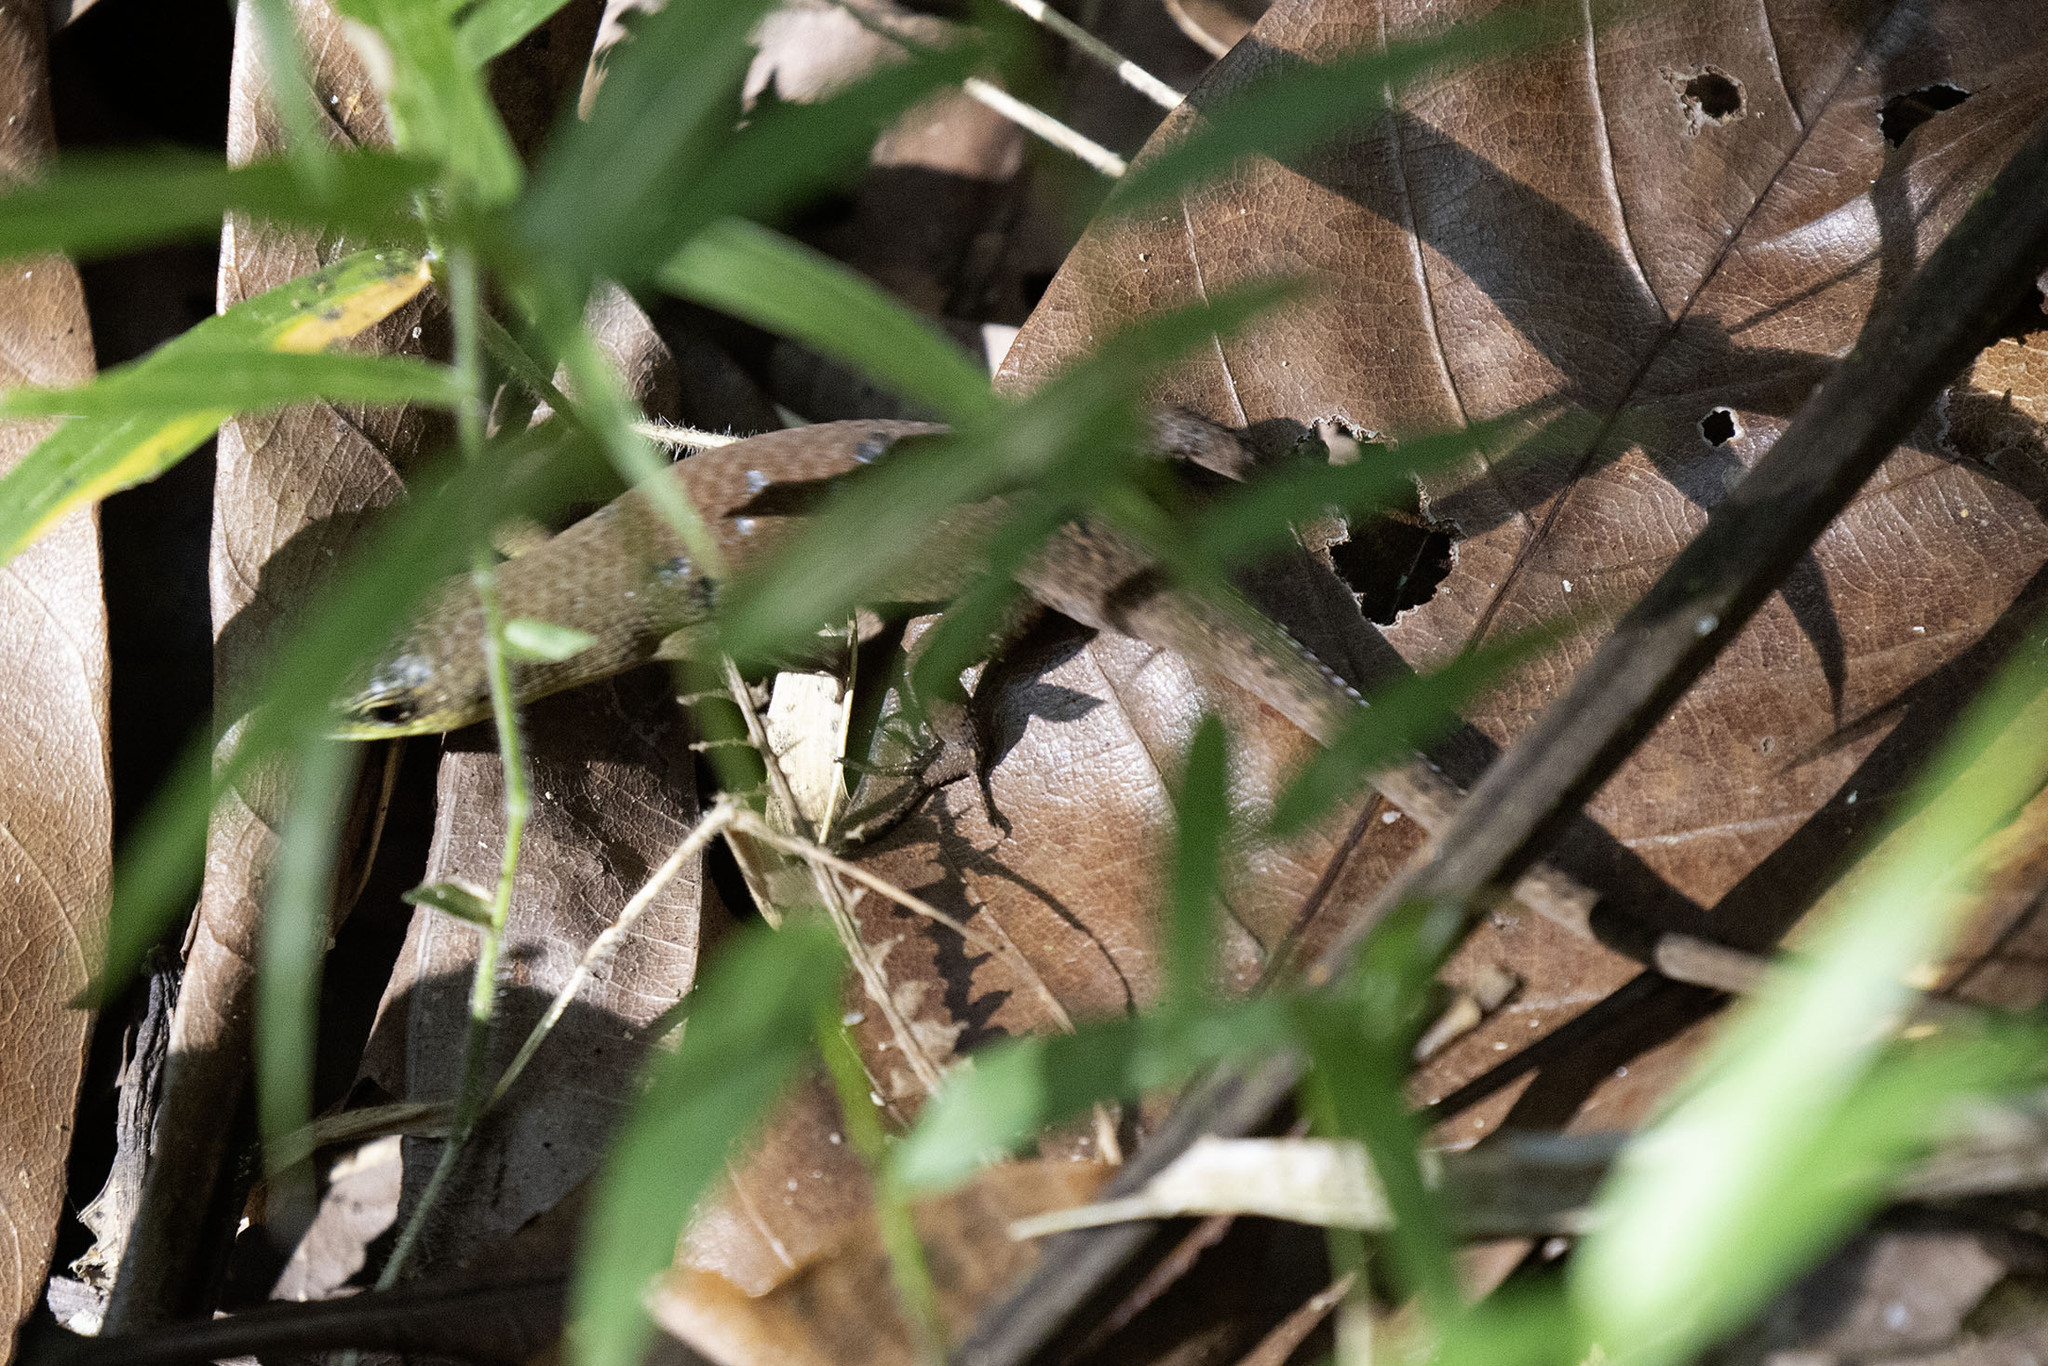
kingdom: Animalia
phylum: Chordata
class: Squamata
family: Scincidae
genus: Eutropis
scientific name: Eutropis multifasciata
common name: Common mabuya
